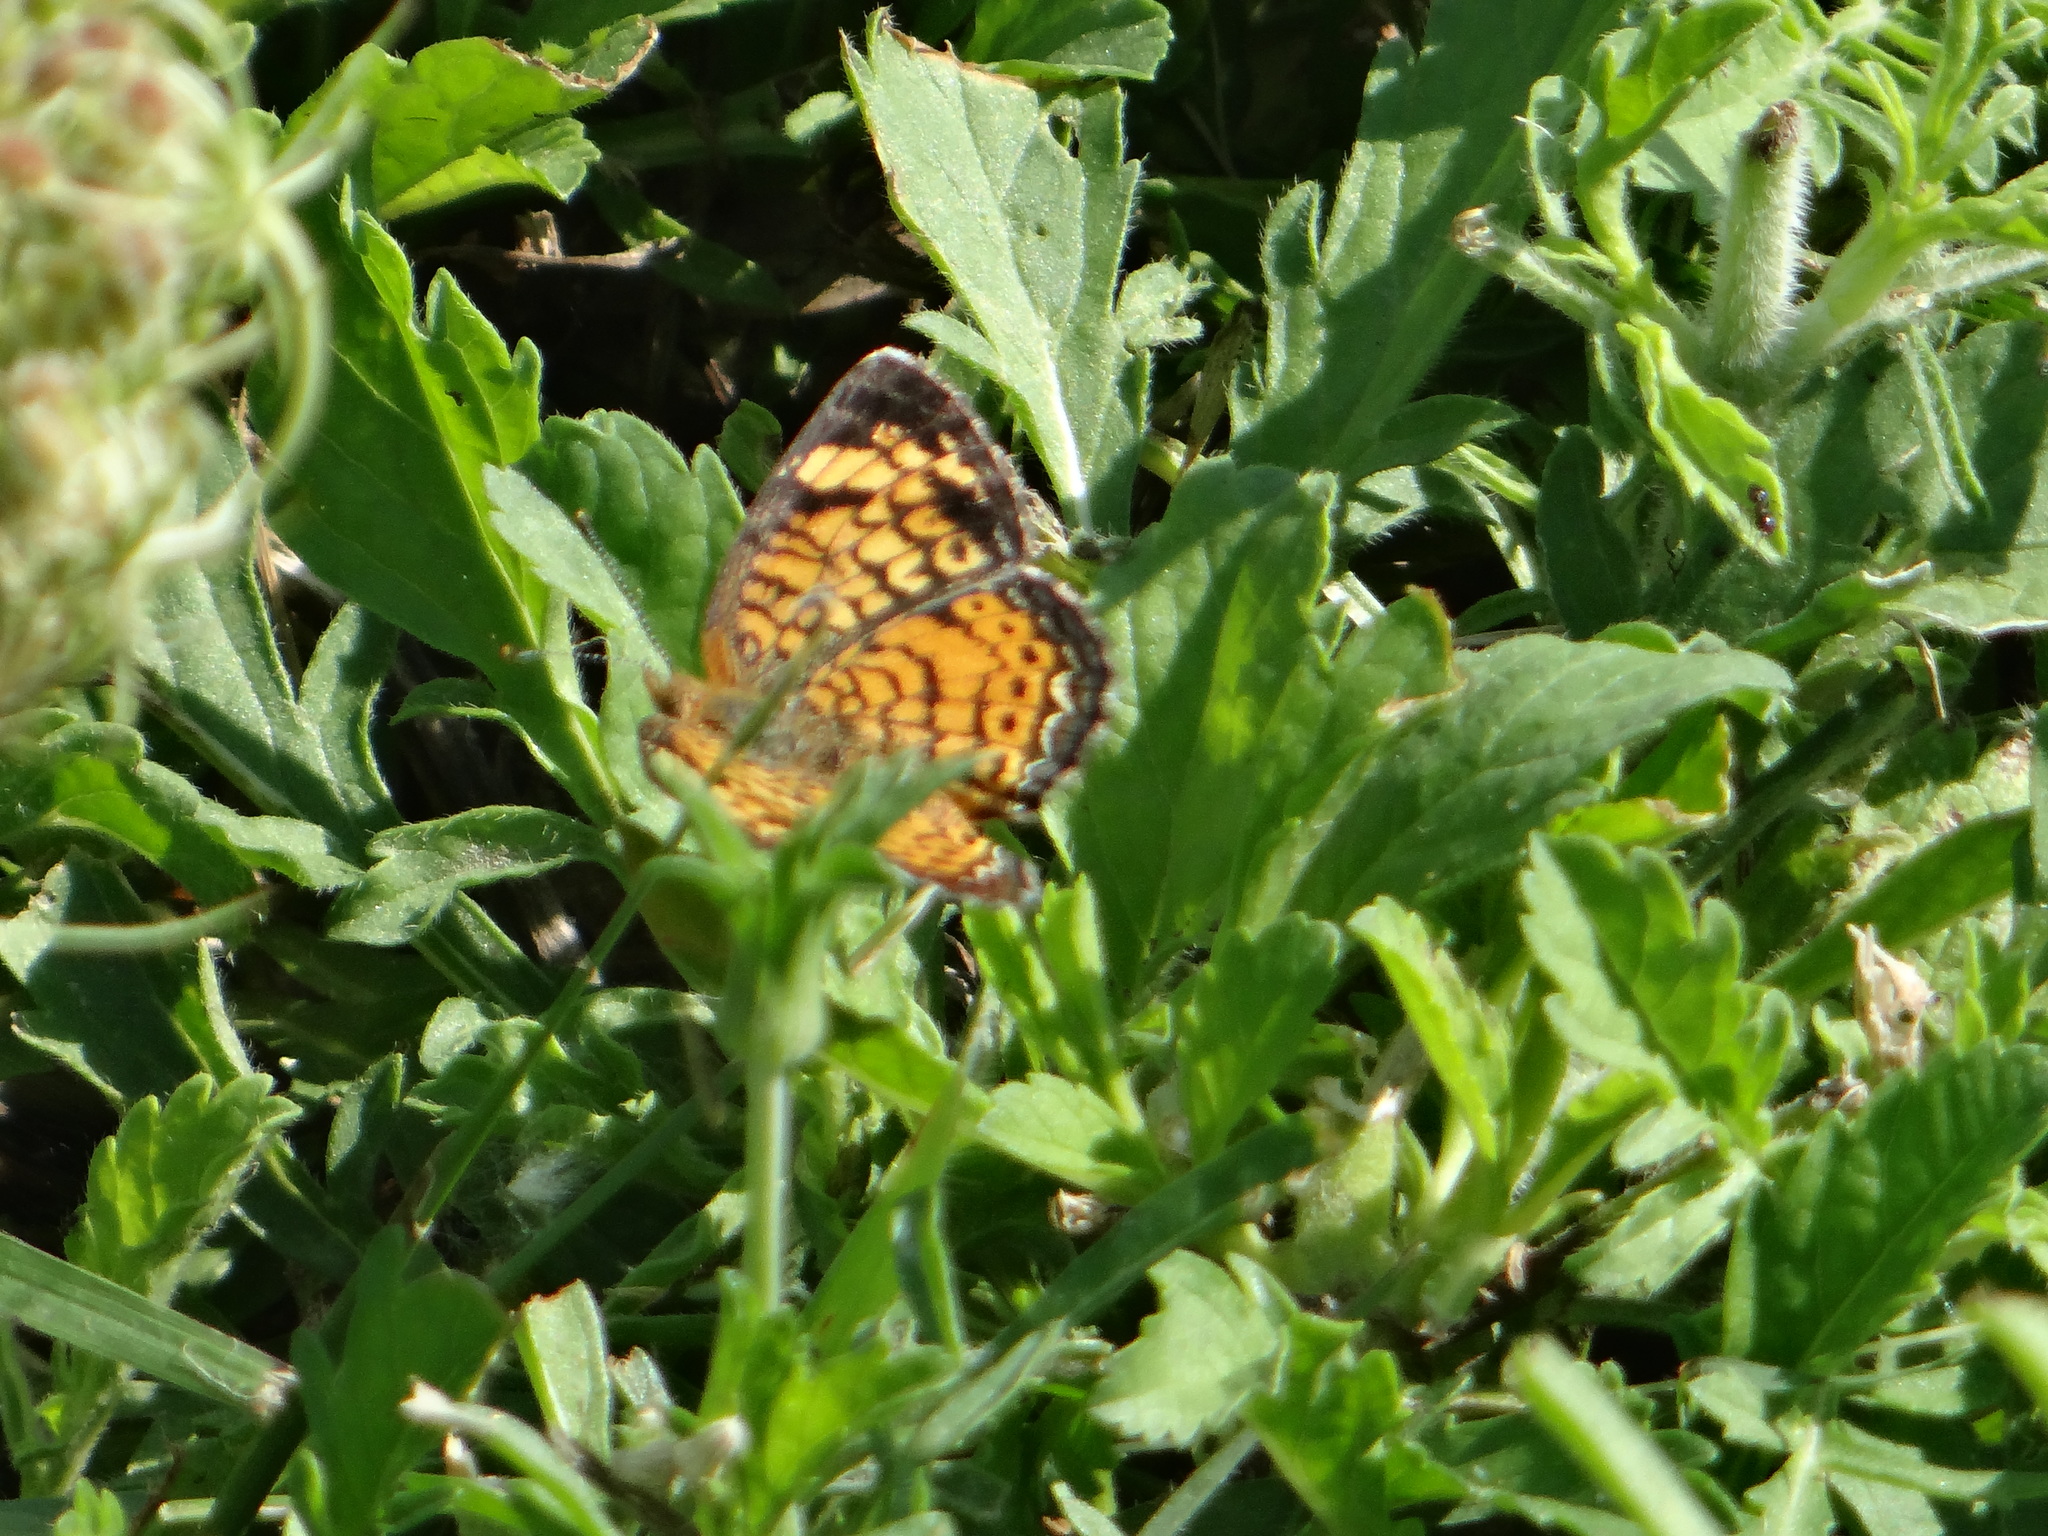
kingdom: Animalia
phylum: Arthropoda
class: Insecta
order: Lepidoptera
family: Nymphalidae
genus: Phyciodes
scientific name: Phyciodes tharos
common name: Pearl crescent
